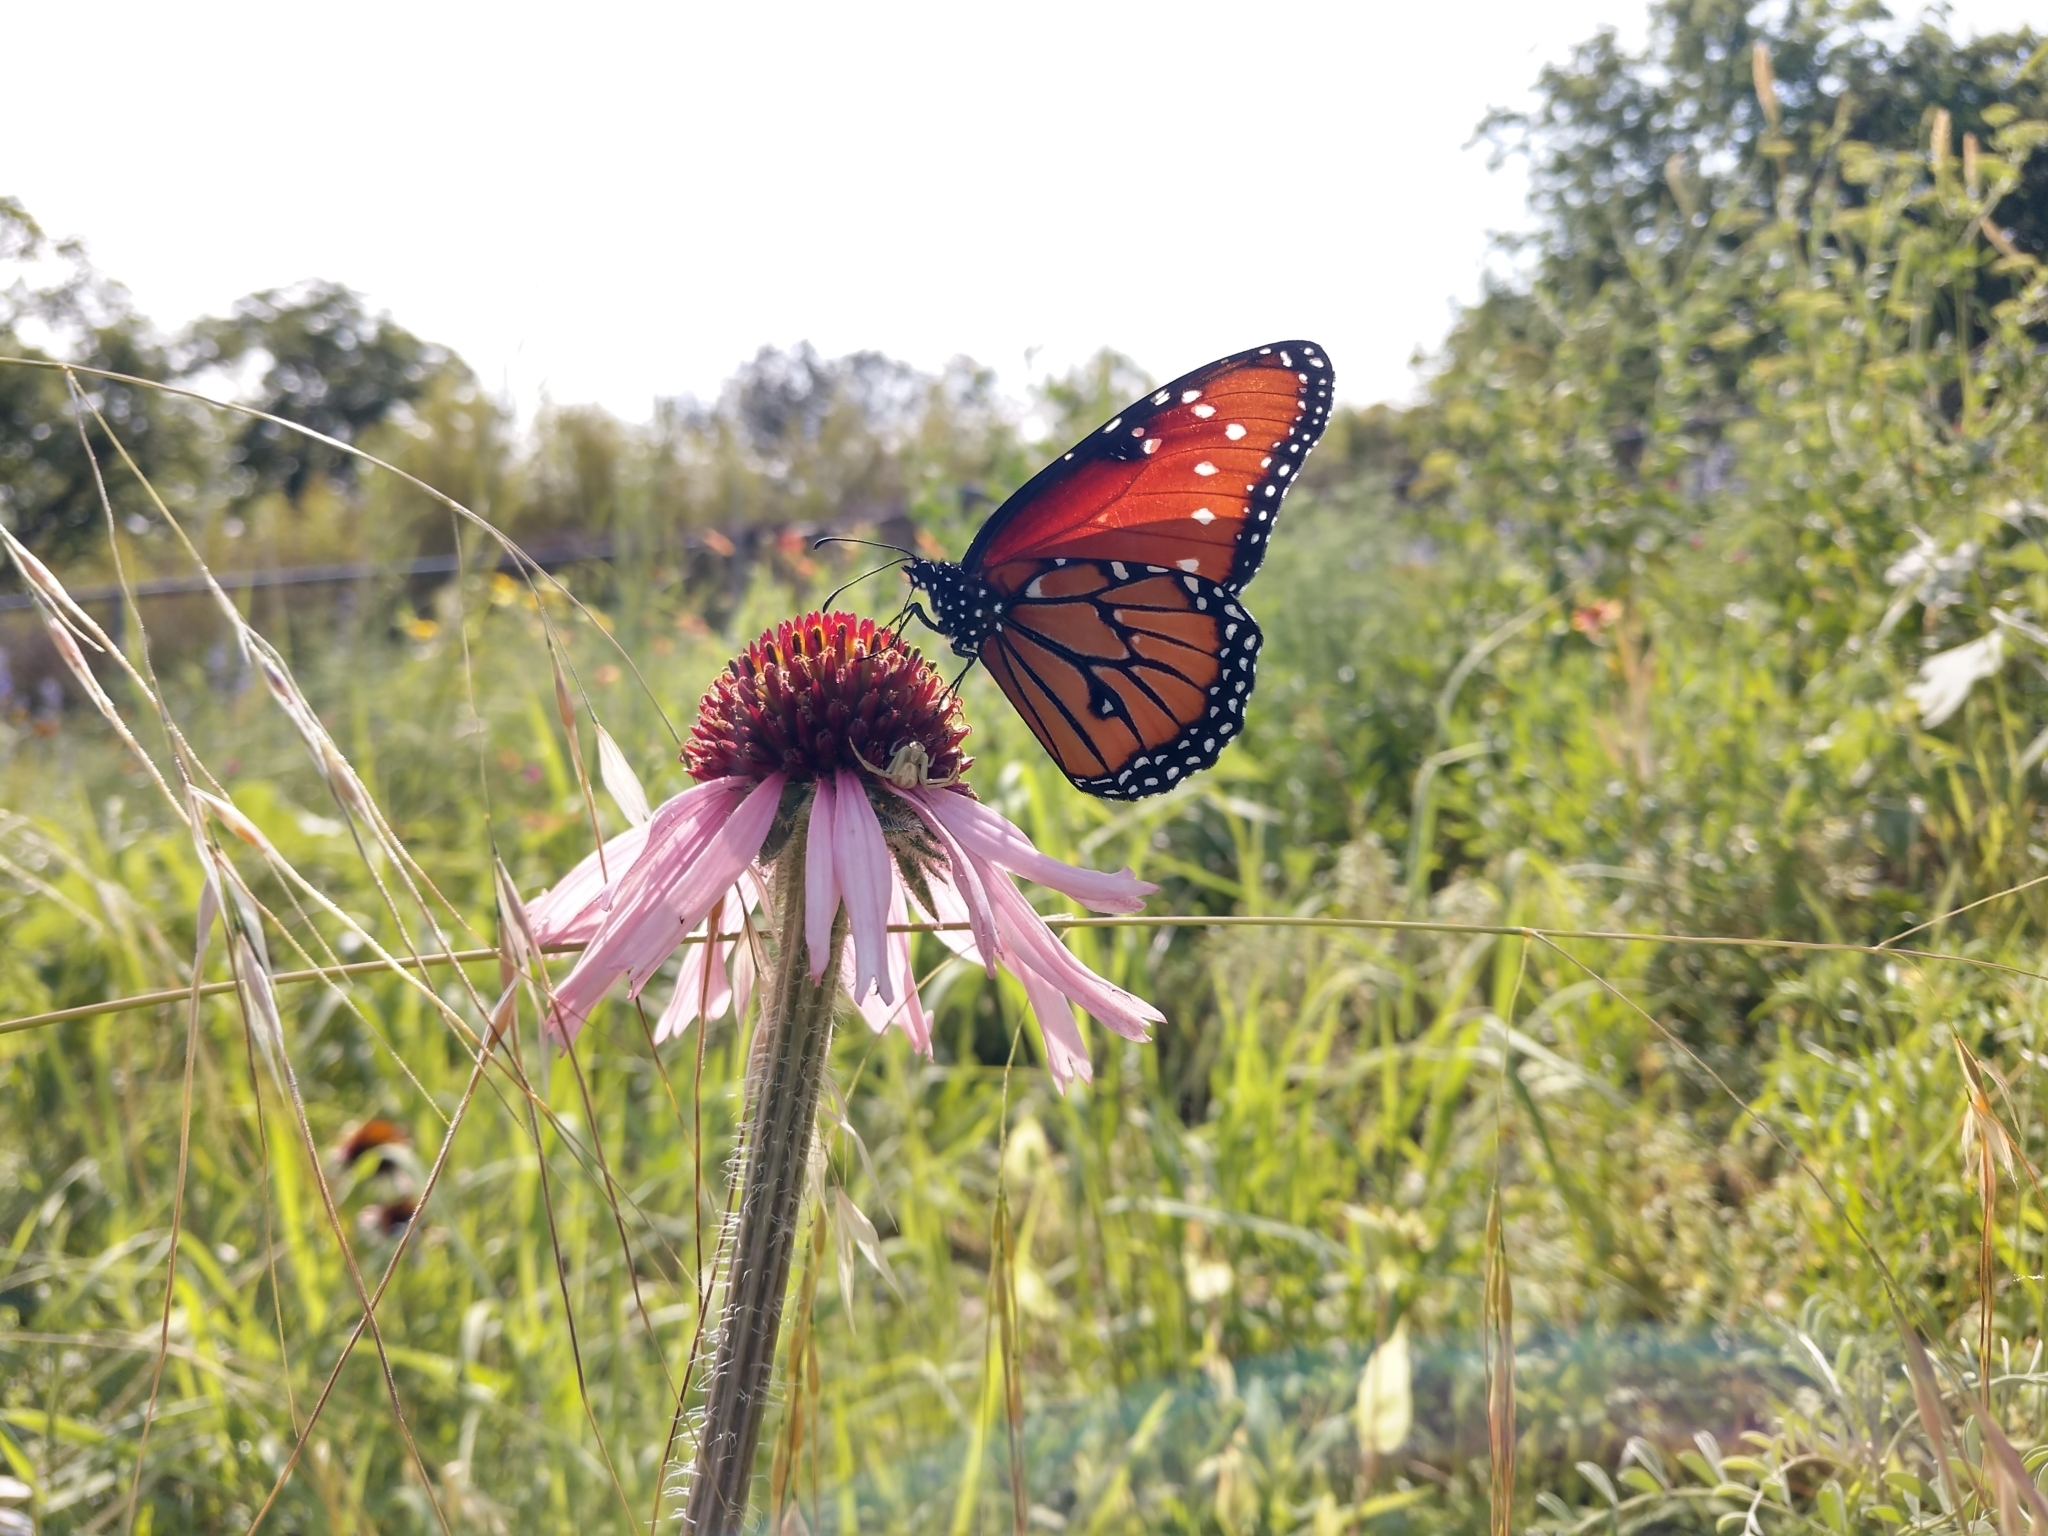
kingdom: Animalia
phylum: Arthropoda
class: Insecta
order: Lepidoptera
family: Nymphalidae
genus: Danaus
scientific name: Danaus gilippus
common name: Queen
